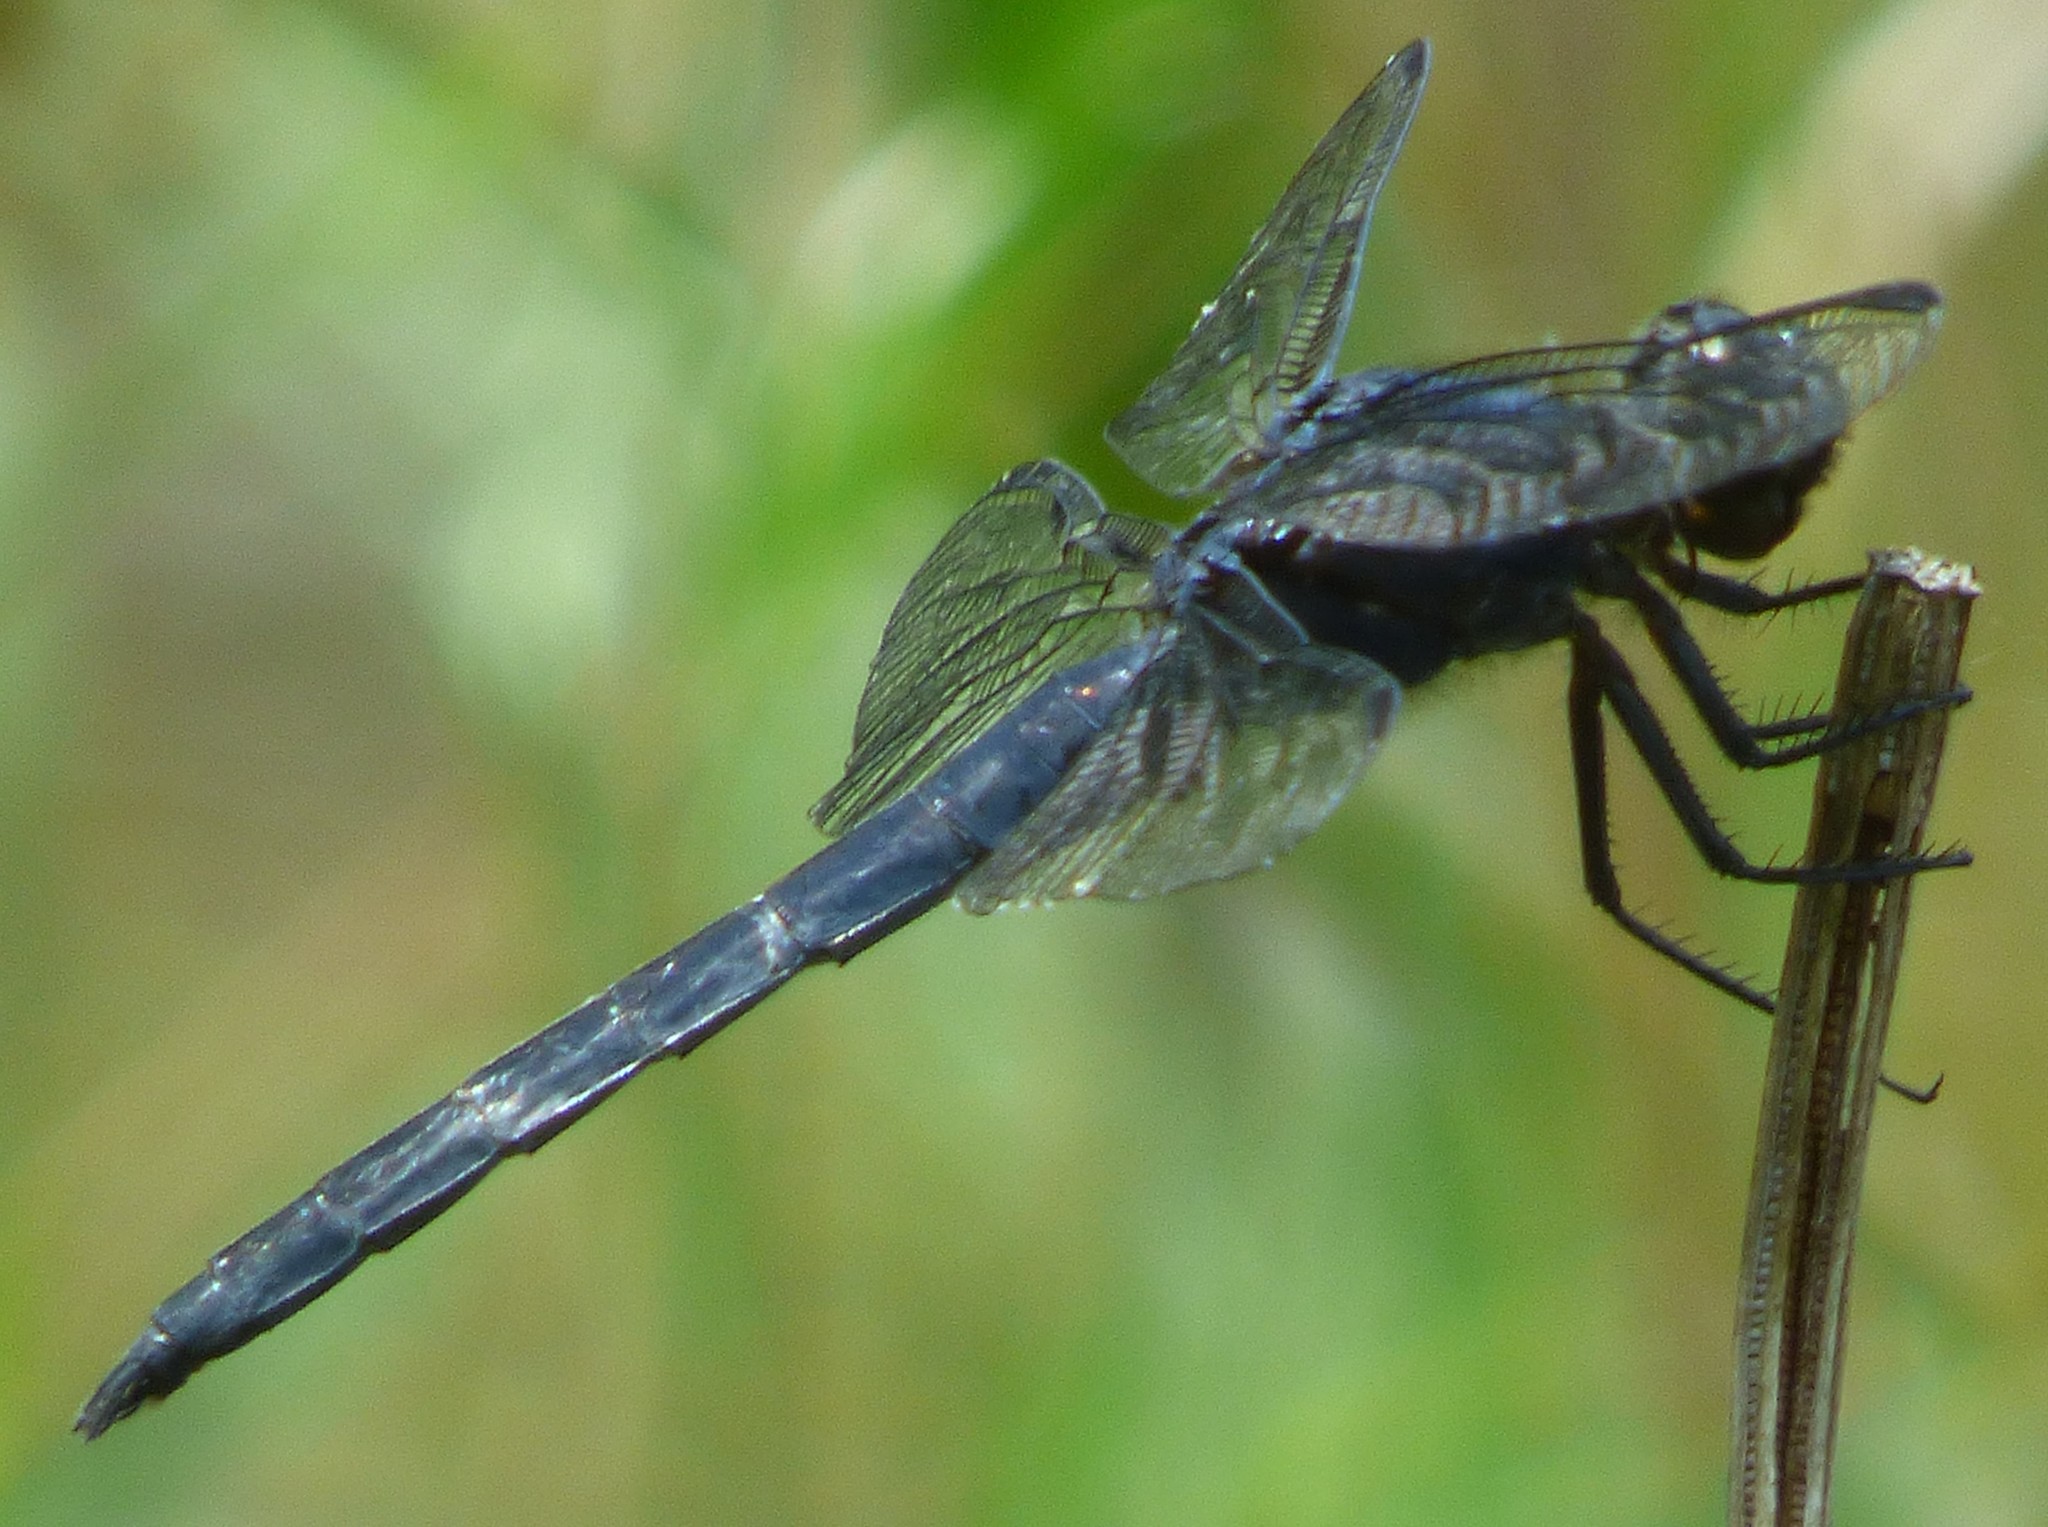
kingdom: Animalia
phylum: Arthropoda
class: Insecta
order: Odonata
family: Libellulidae
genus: Libellula
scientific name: Libellula incesta
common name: Slaty skimmer
